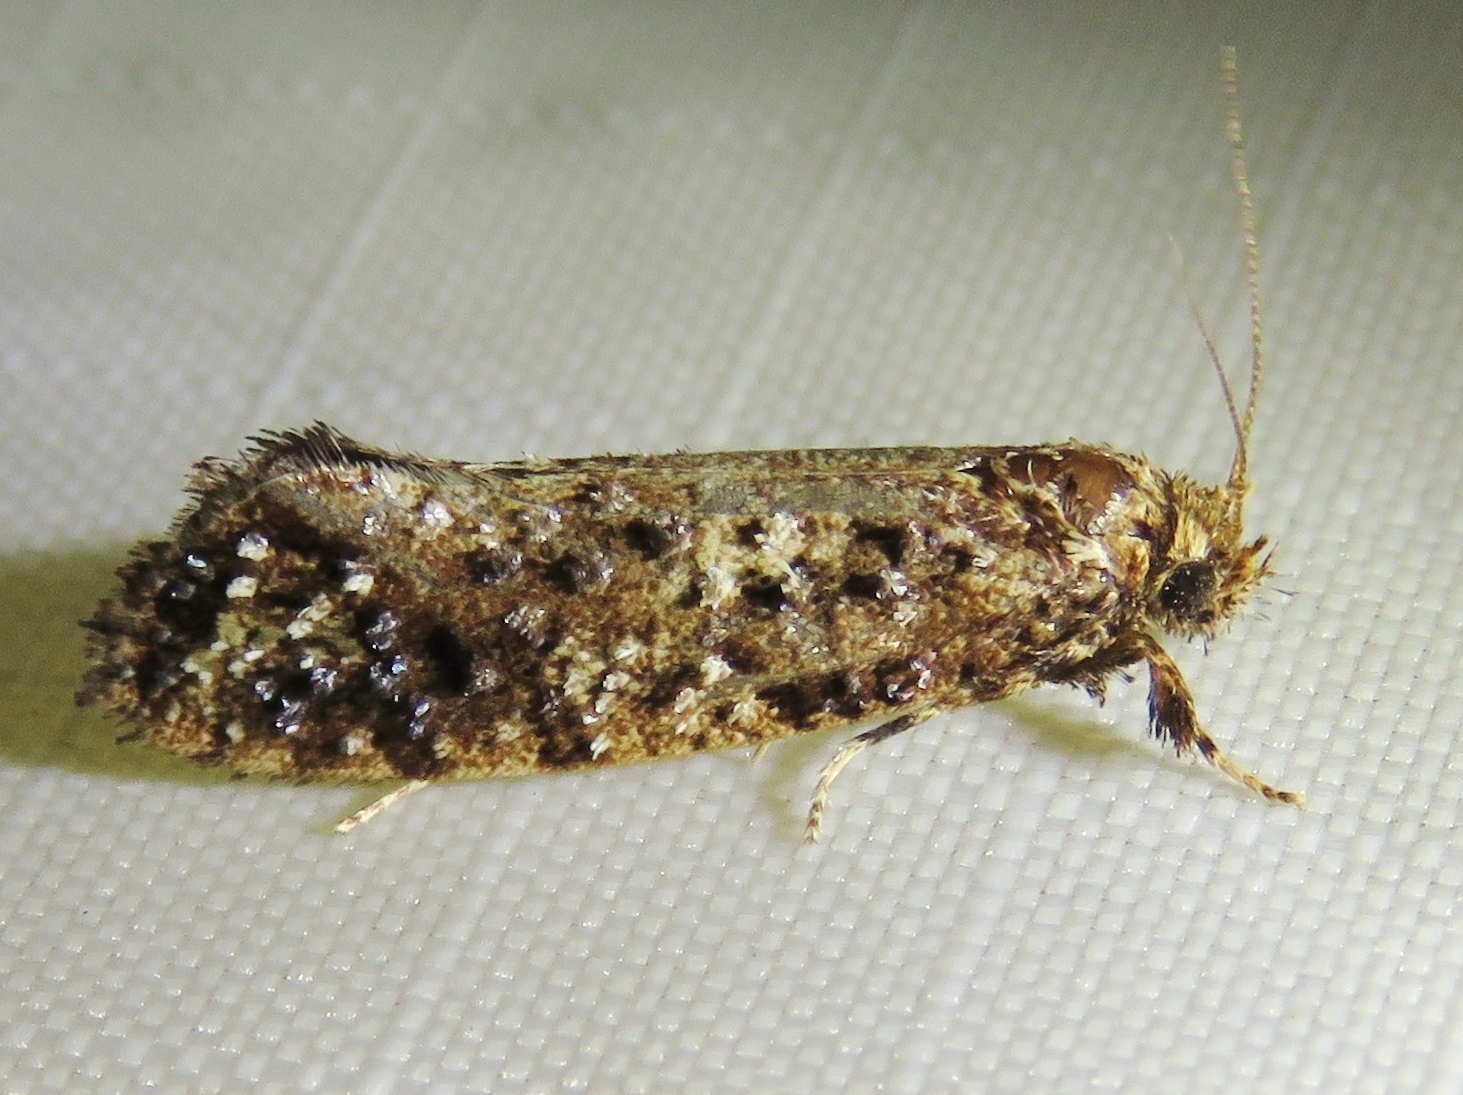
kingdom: Animalia
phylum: Arthropoda
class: Insecta
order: Lepidoptera
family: Tineidae
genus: Acrolophus
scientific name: Acrolophus cressoni
